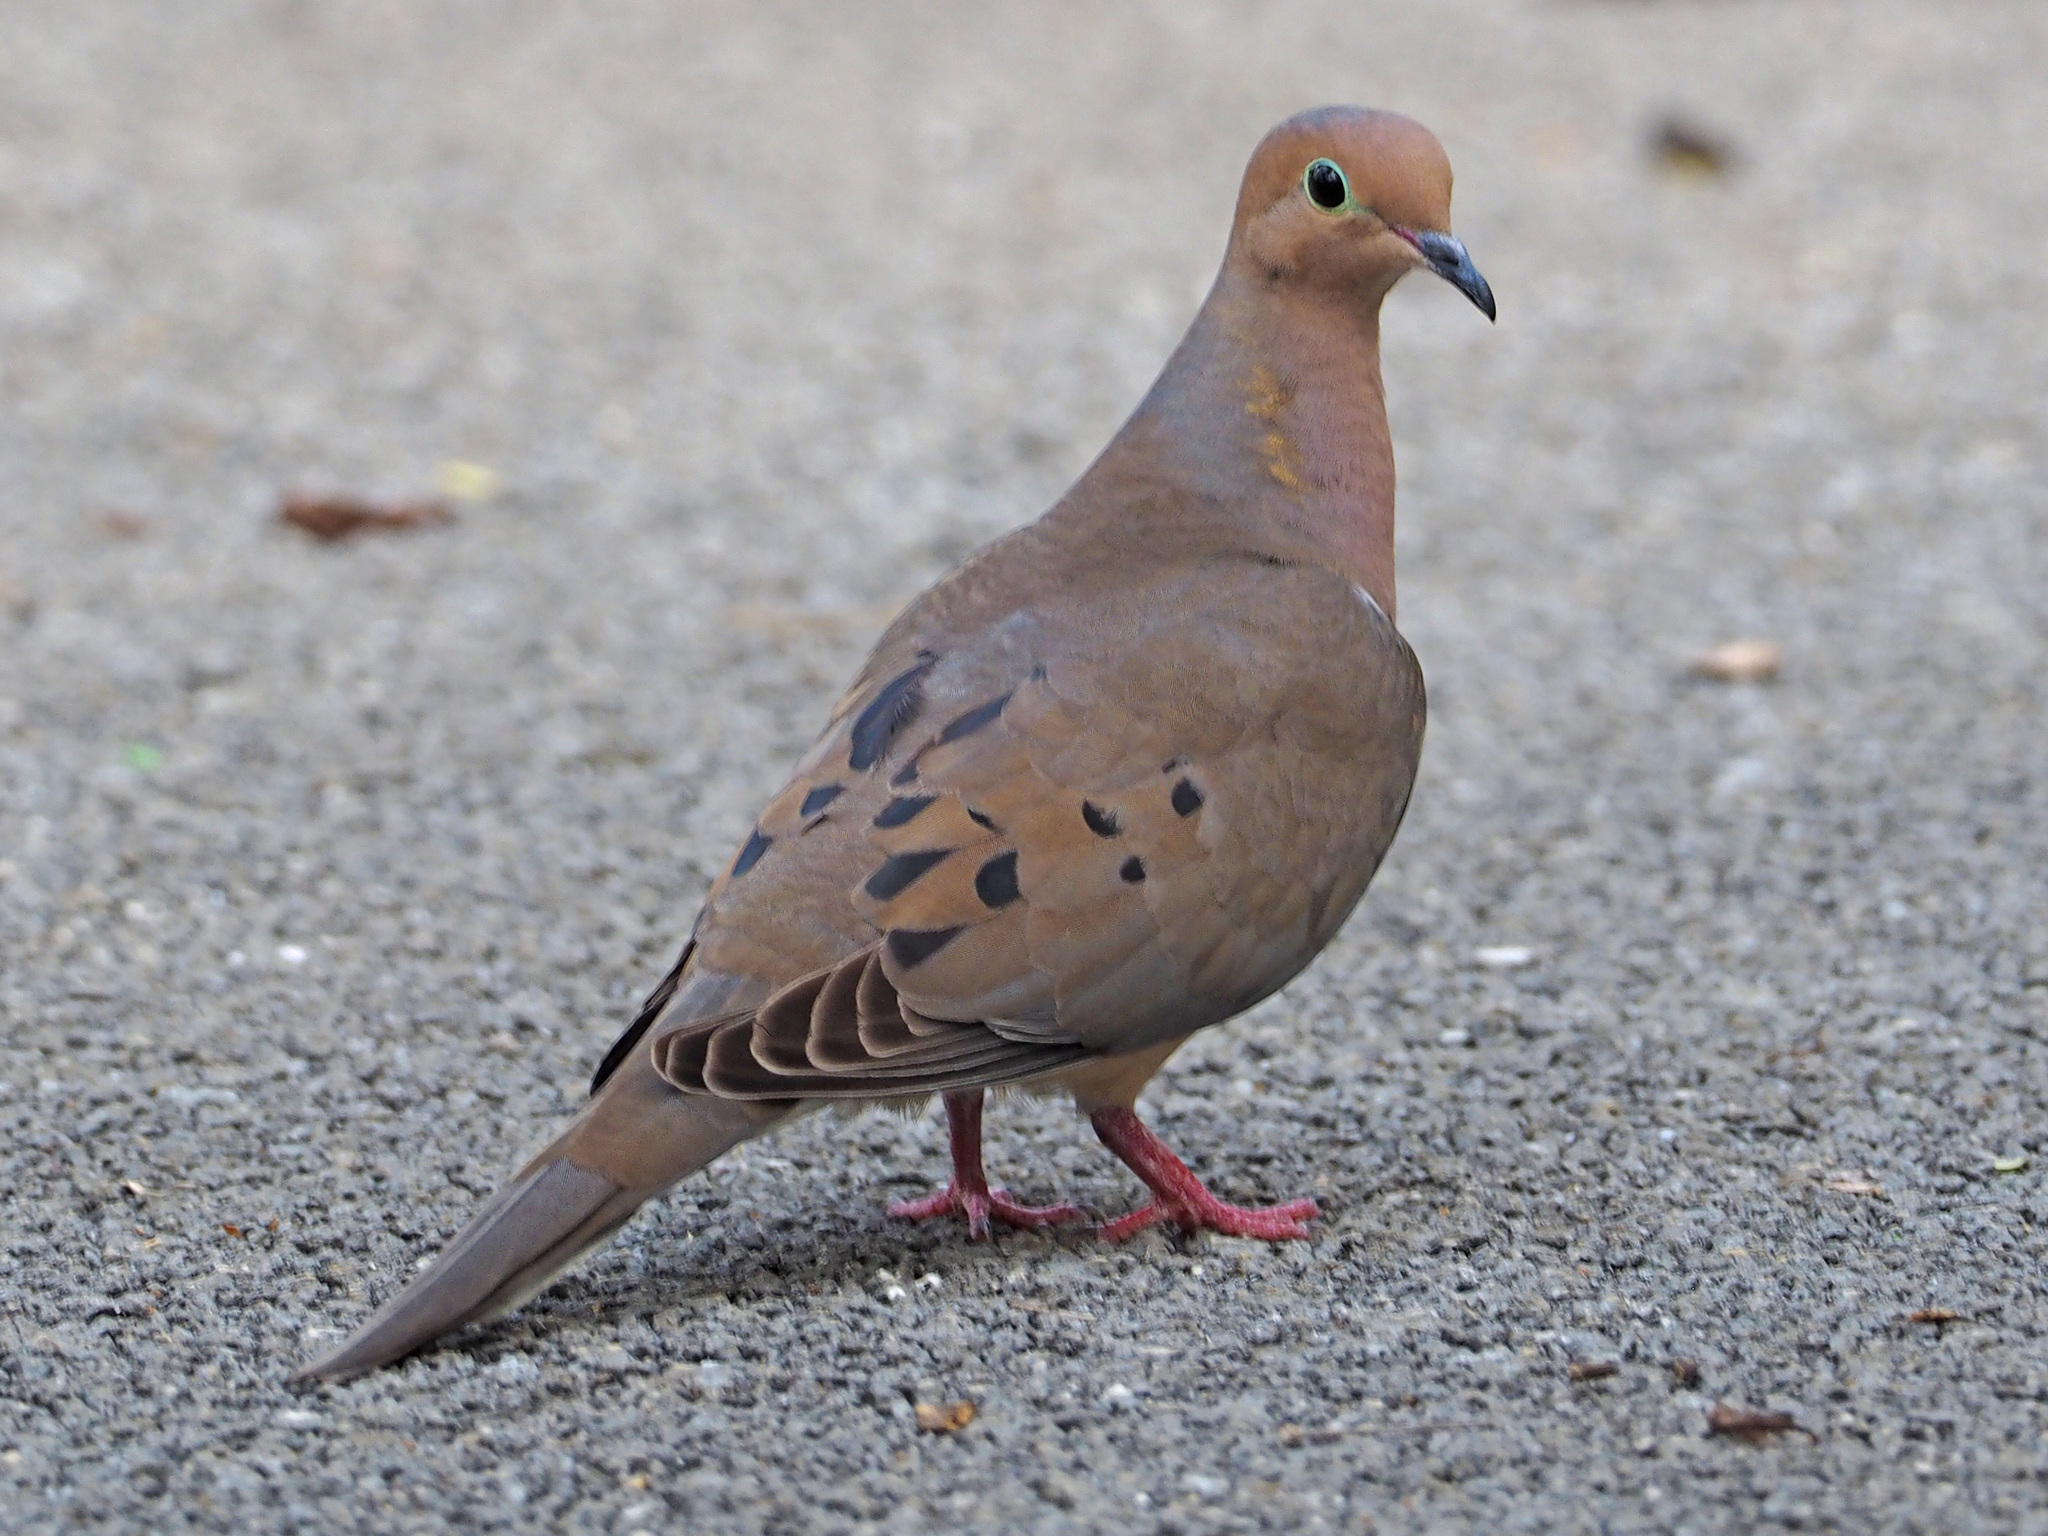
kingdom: Animalia
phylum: Chordata
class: Aves
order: Columbiformes
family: Columbidae
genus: Zenaida
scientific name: Zenaida macroura
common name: Mourning dove
